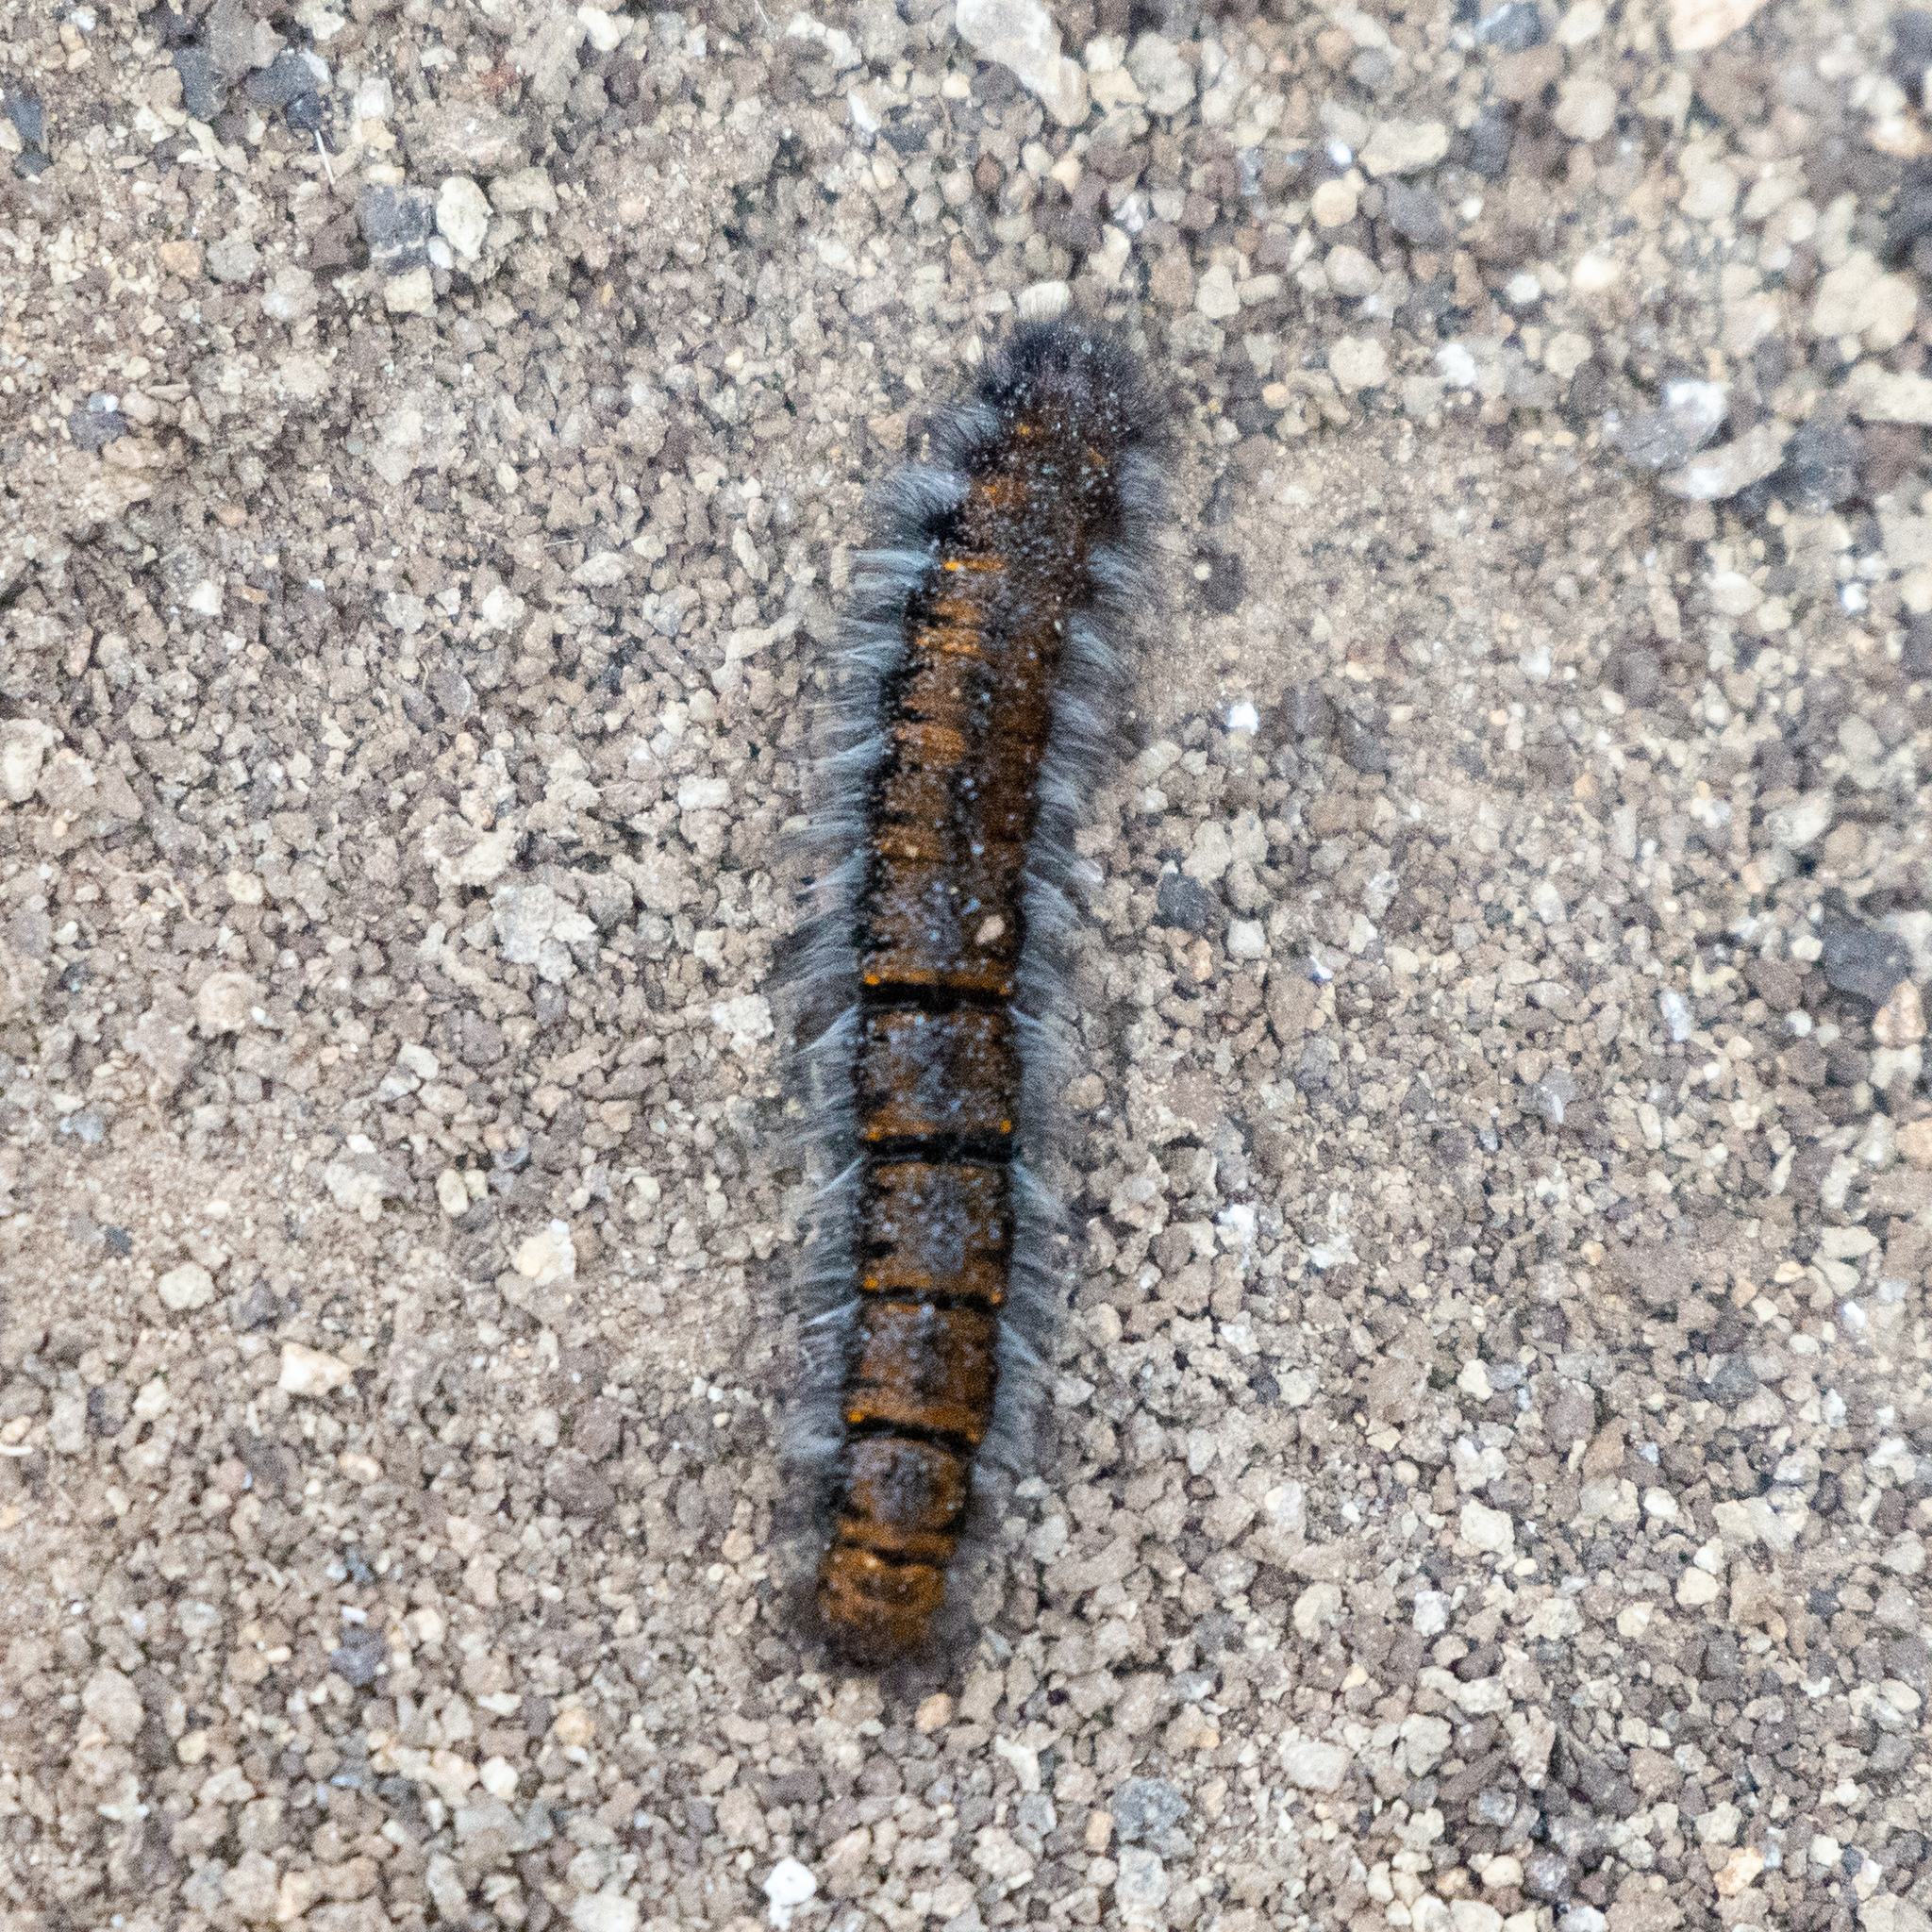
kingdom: Animalia
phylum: Arthropoda
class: Insecta
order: Lepidoptera
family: Lasiocampidae
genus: Macrothylacia
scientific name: Macrothylacia rubi
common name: Fox moth
